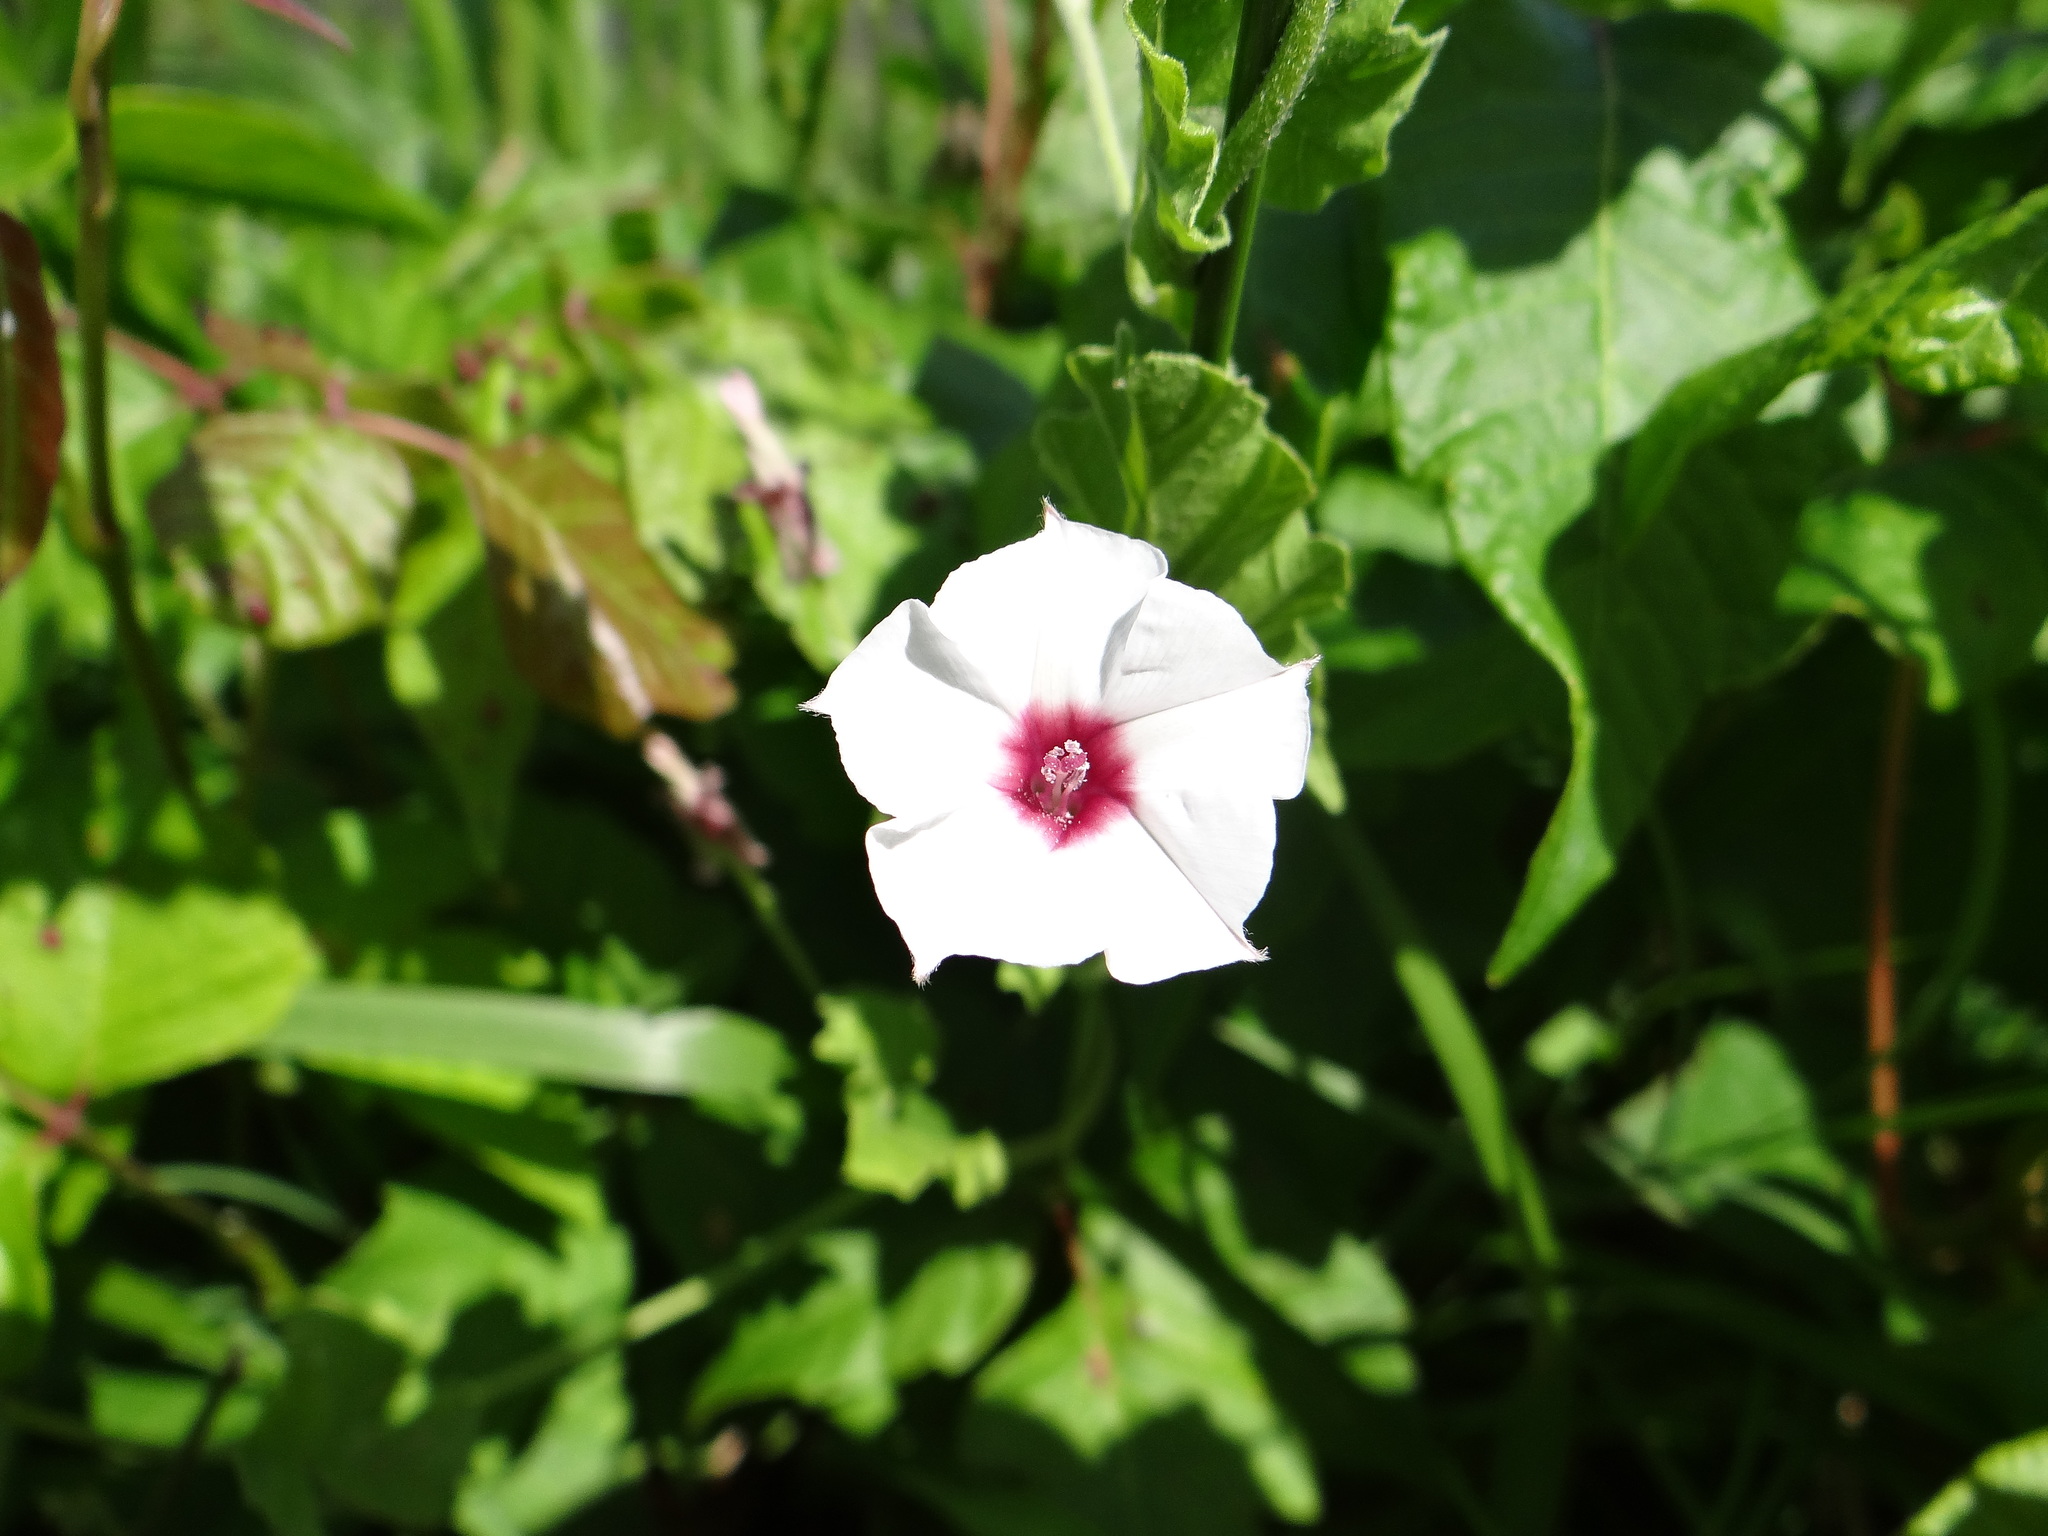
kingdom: Plantae
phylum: Tracheophyta
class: Magnoliopsida
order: Solanales
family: Convolvulaceae
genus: Convolvulus
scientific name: Convolvulus equitans
